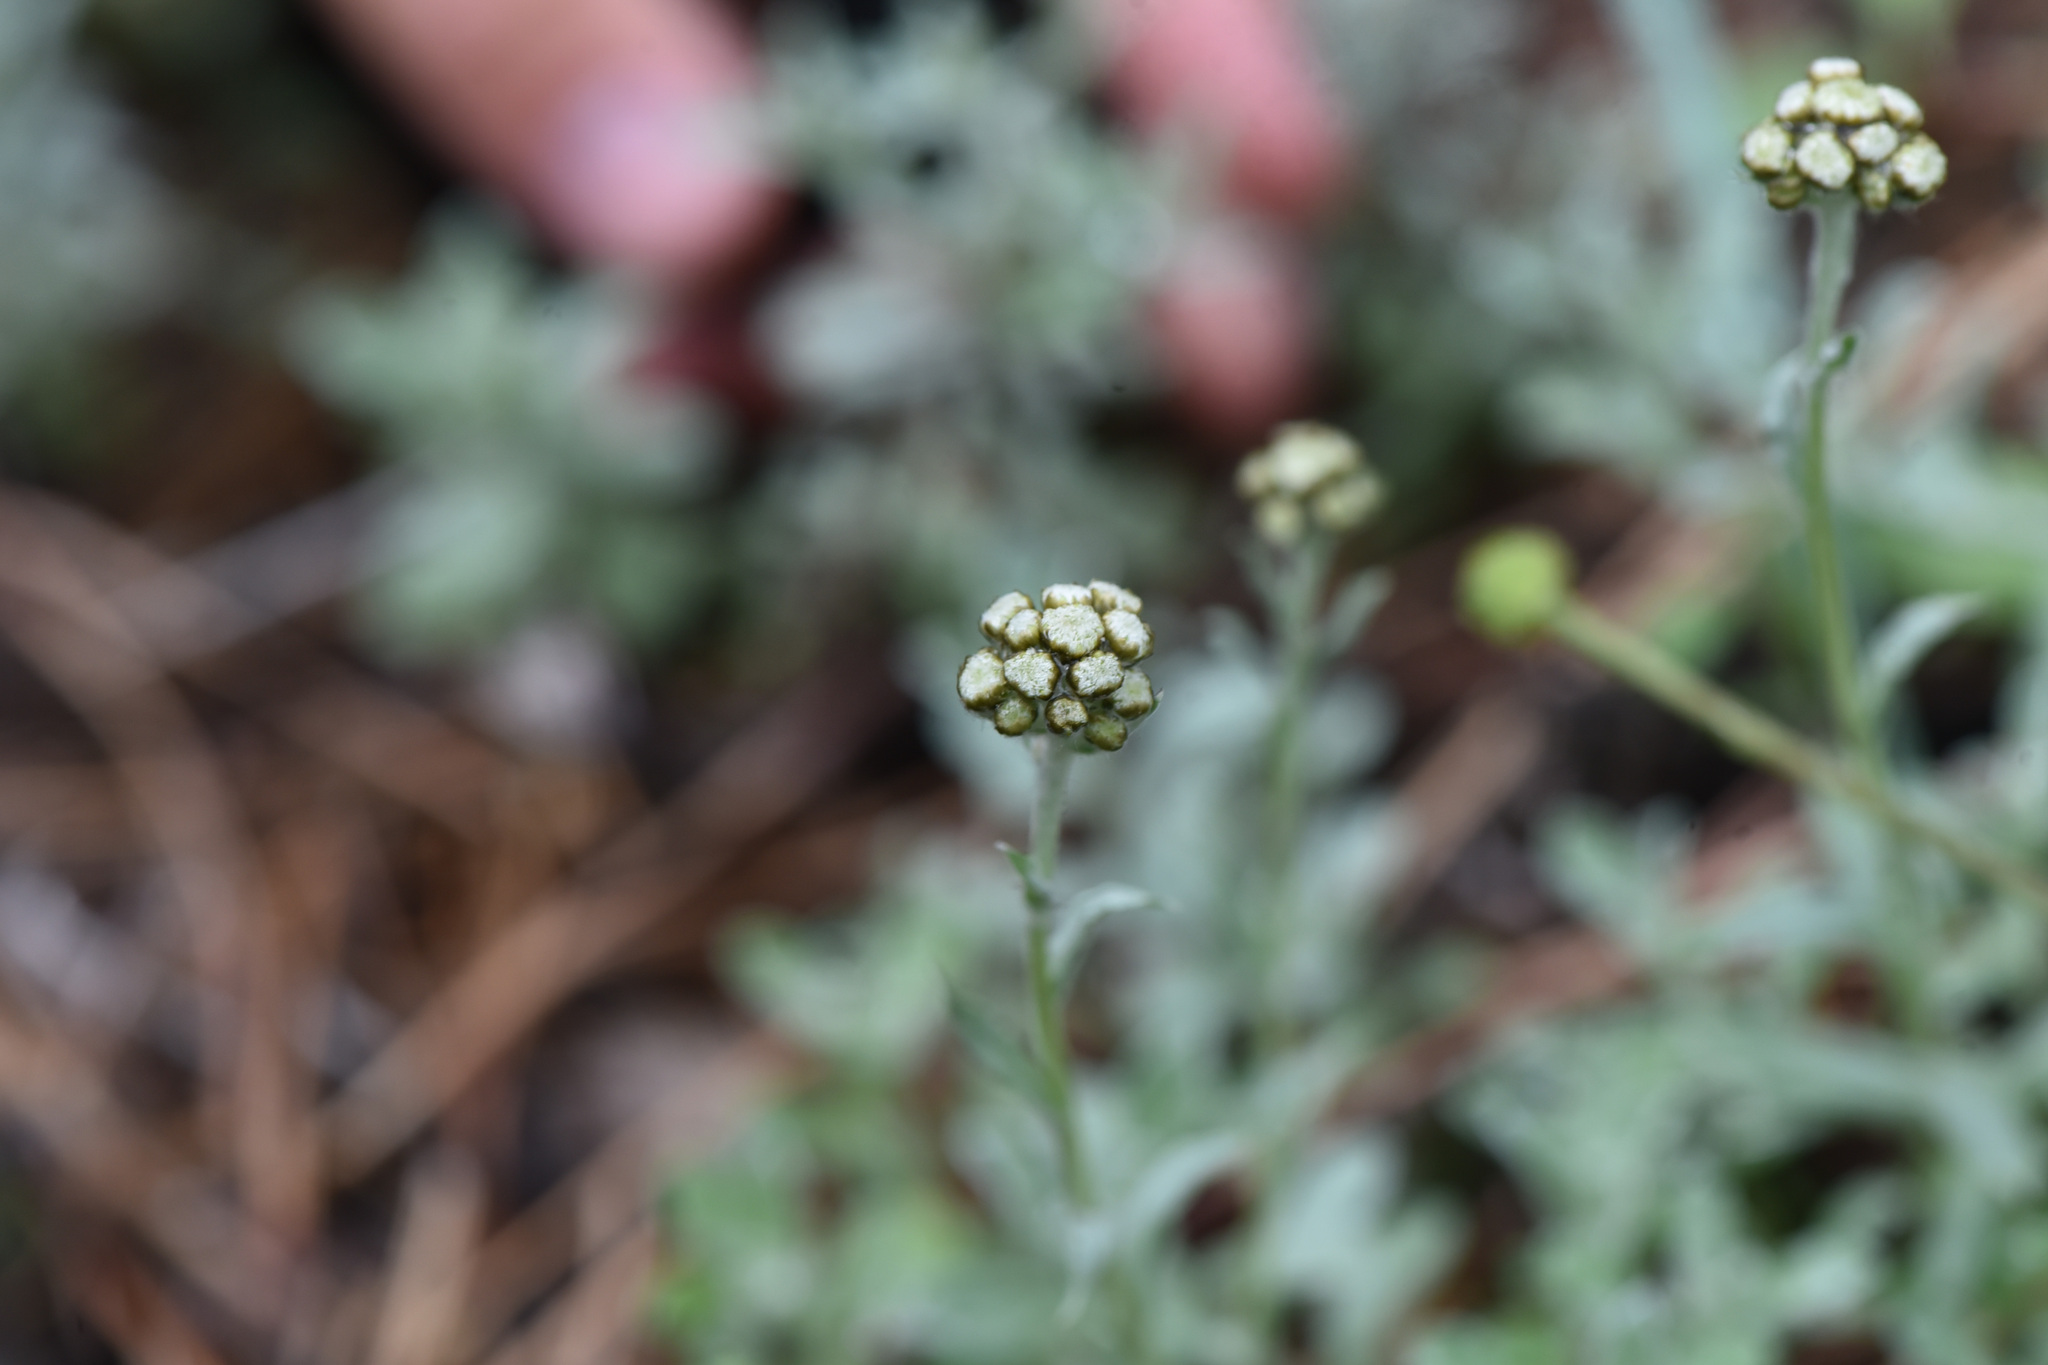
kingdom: Plantae
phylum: Tracheophyta
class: Magnoliopsida
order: Asterales
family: Asteraceae
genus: Antennaria
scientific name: Antennaria umbrinella
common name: Brown pussytoes
